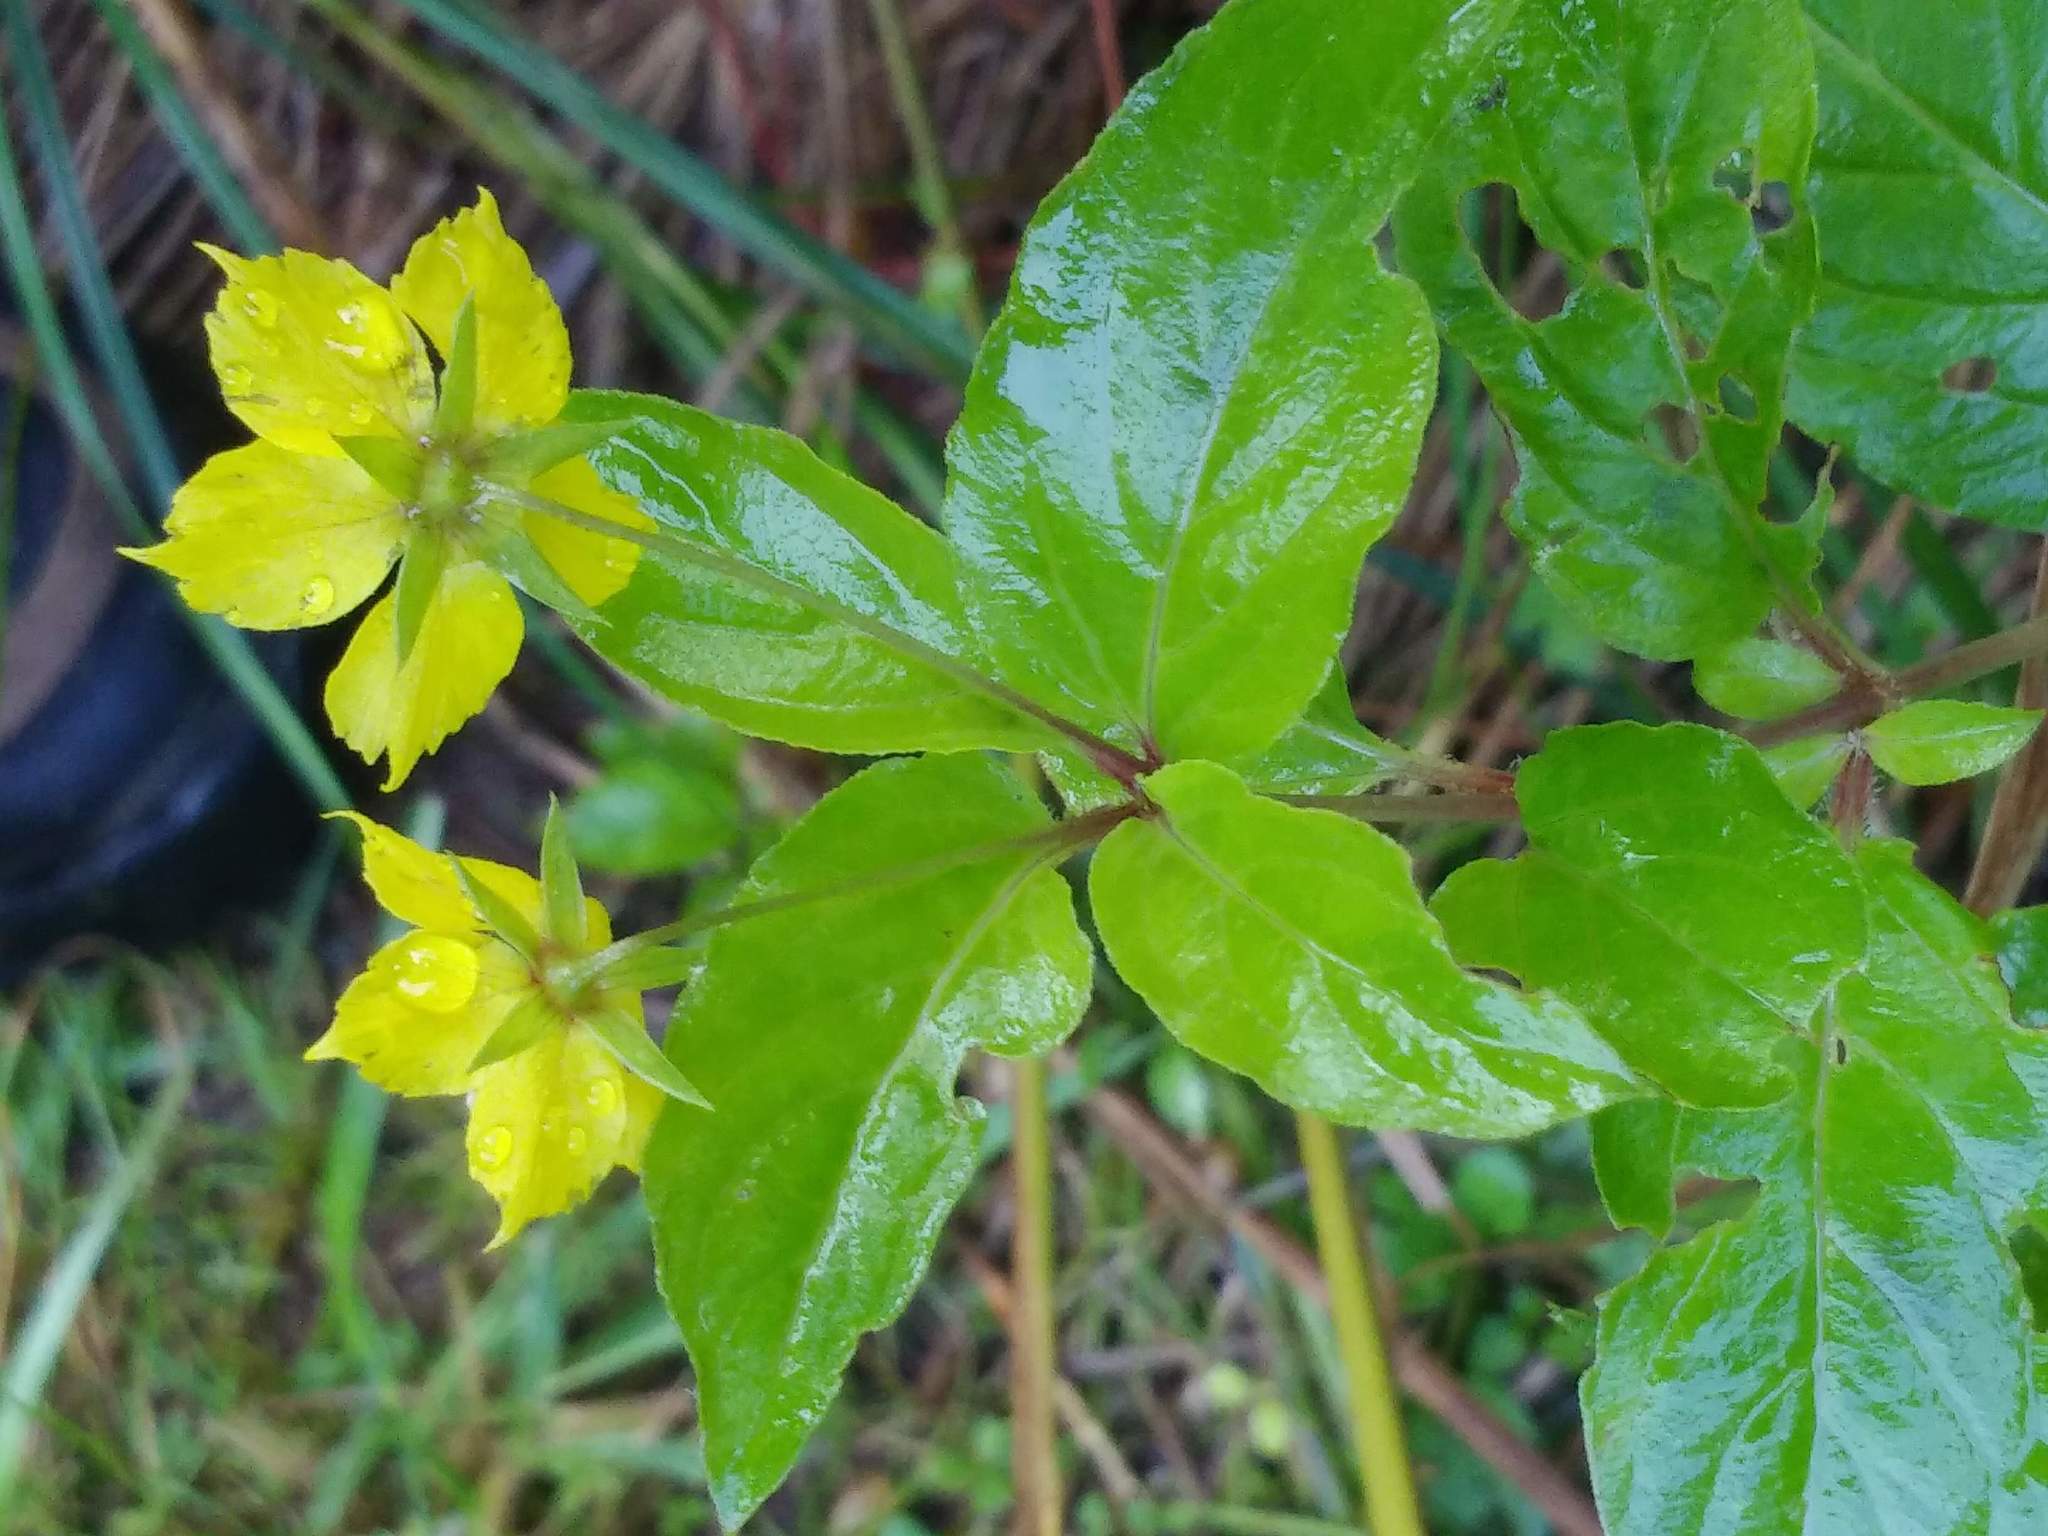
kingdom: Plantae
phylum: Tracheophyta
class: Magnoliopsida
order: Ericales
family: Primulaceae
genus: Lysimachia
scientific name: Lysimachia ciliata
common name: Fringed loosestrife
